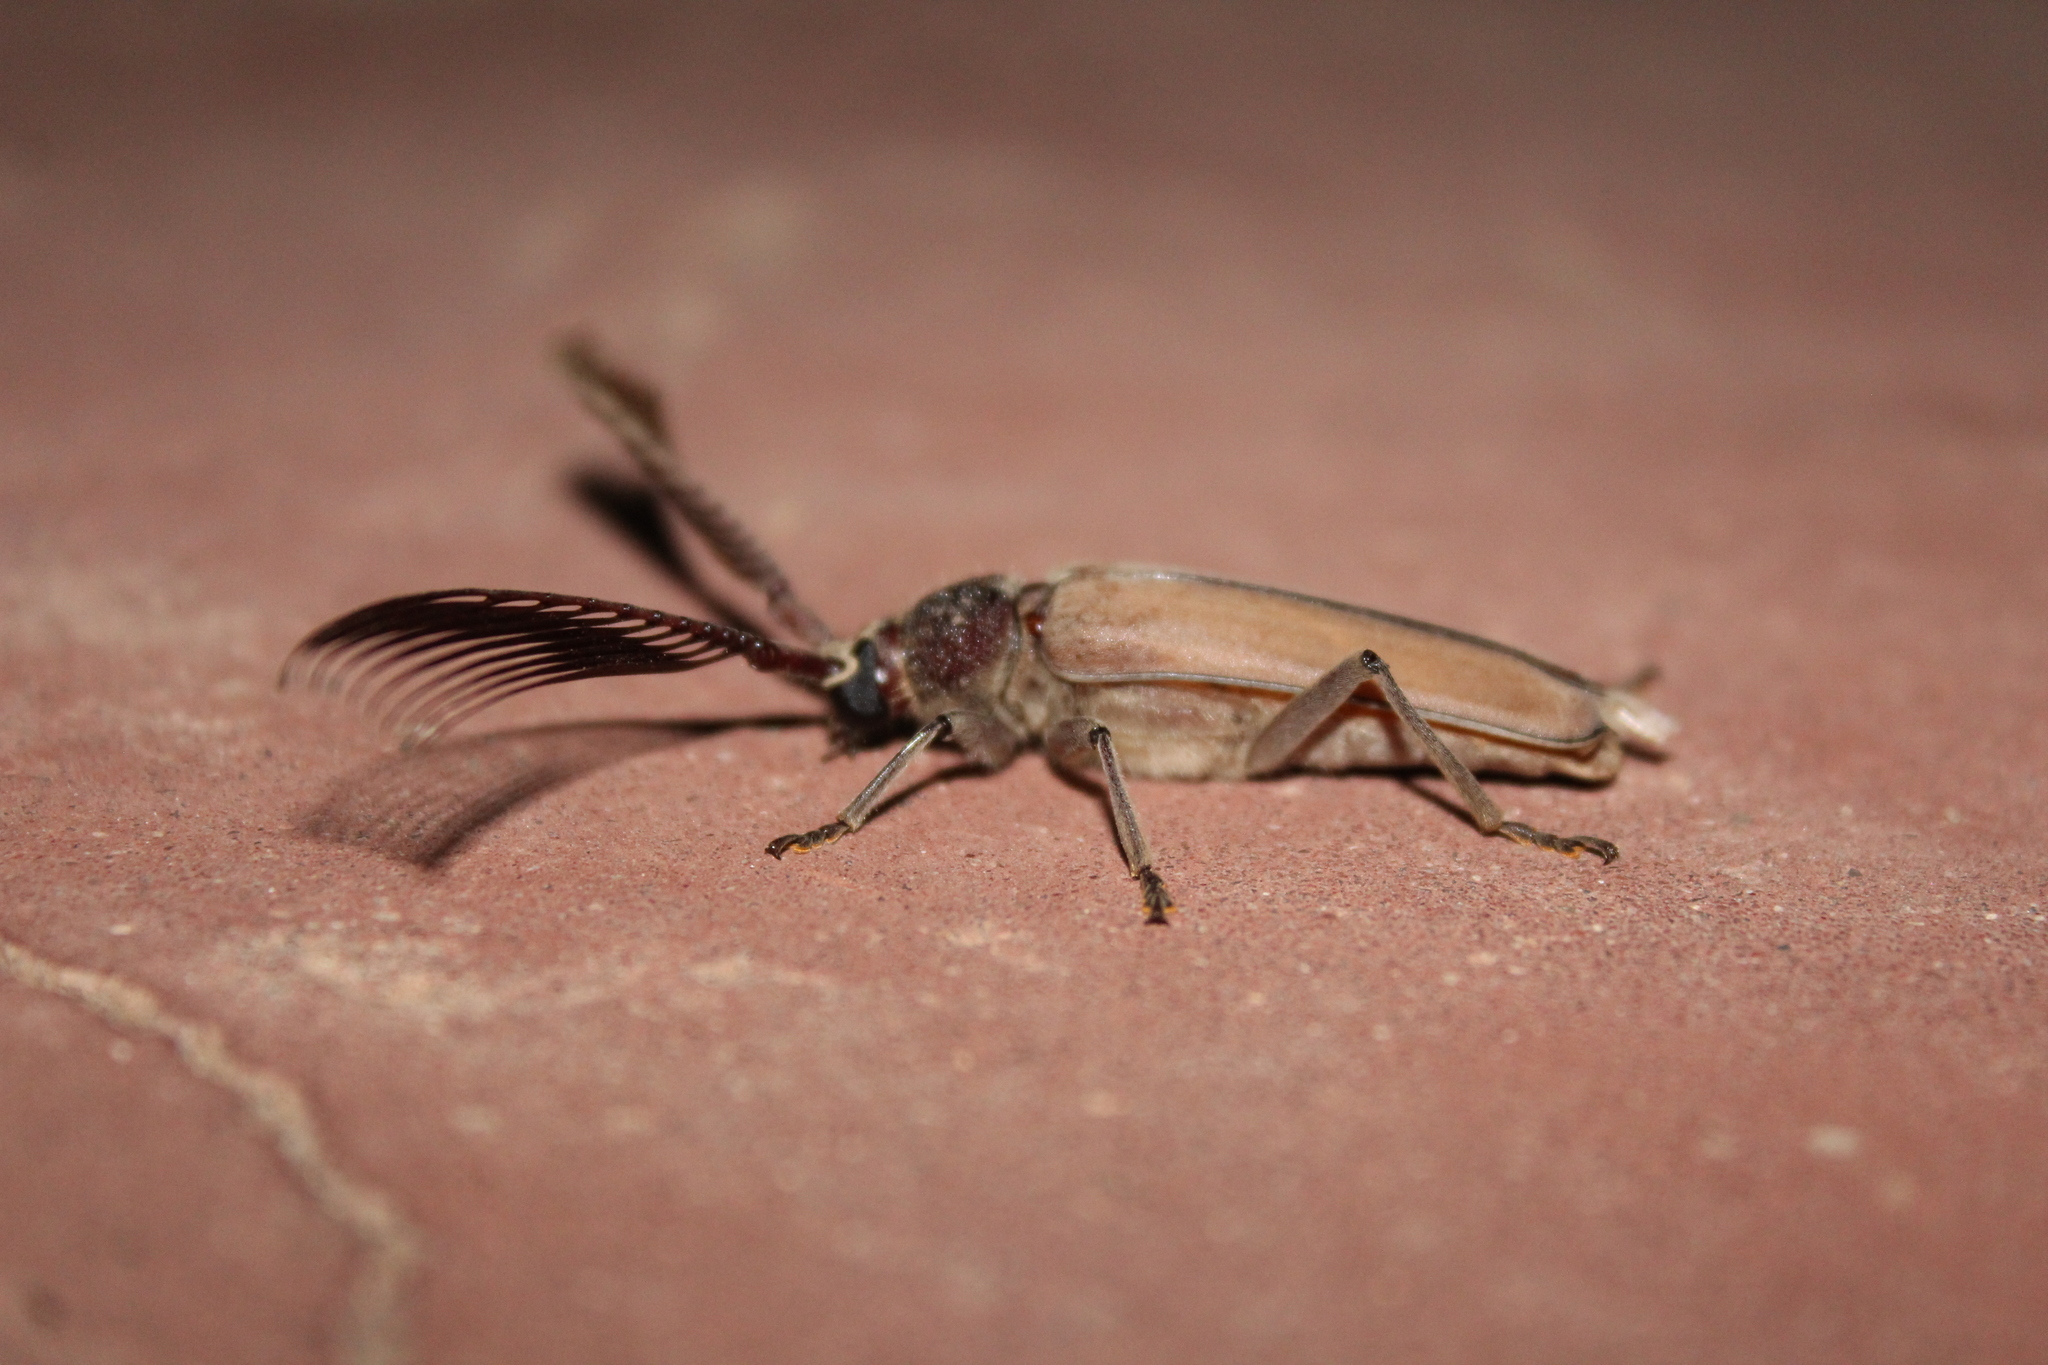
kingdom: Animalia
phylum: Arthropoda
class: Insecta
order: Coleoptera
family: Cerambycidae
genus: Psygmatocerus
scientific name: Psygmatocerus wagleri
